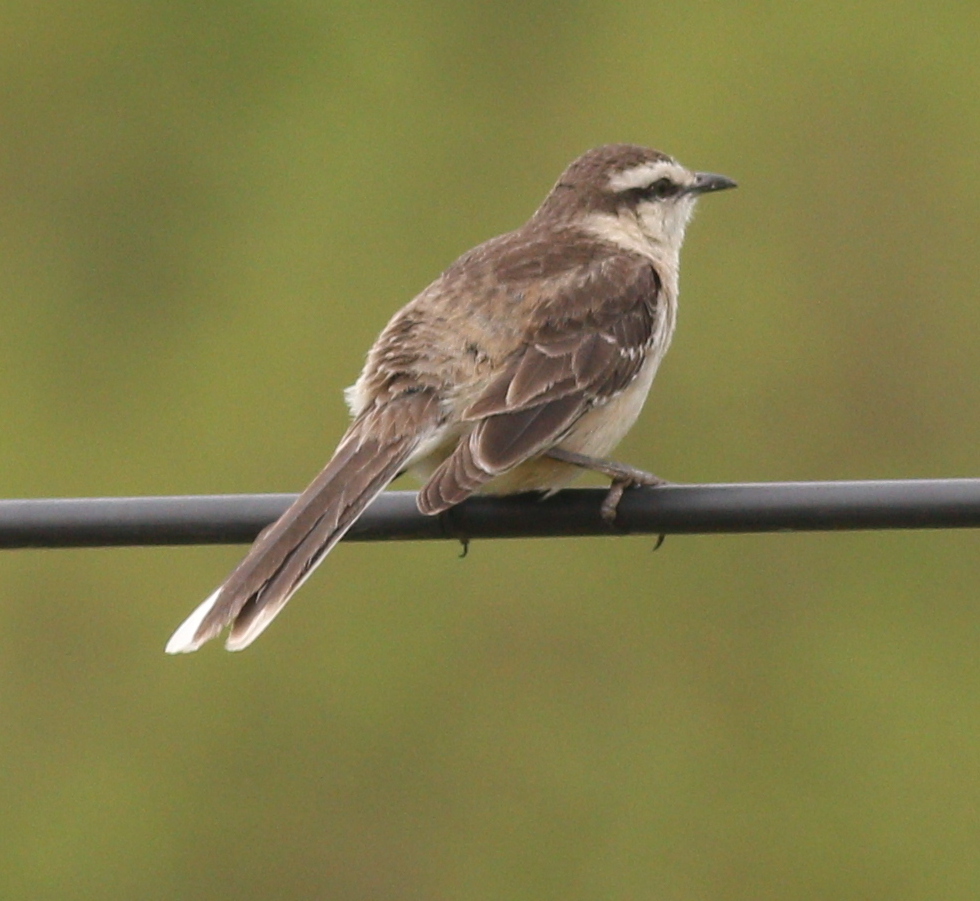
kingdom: Animalia
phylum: Chordata
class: Aves
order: Passeriformes
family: Mimidae
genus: Mimus
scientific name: Mimus saturninus
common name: Chalk-browed mockingbird
